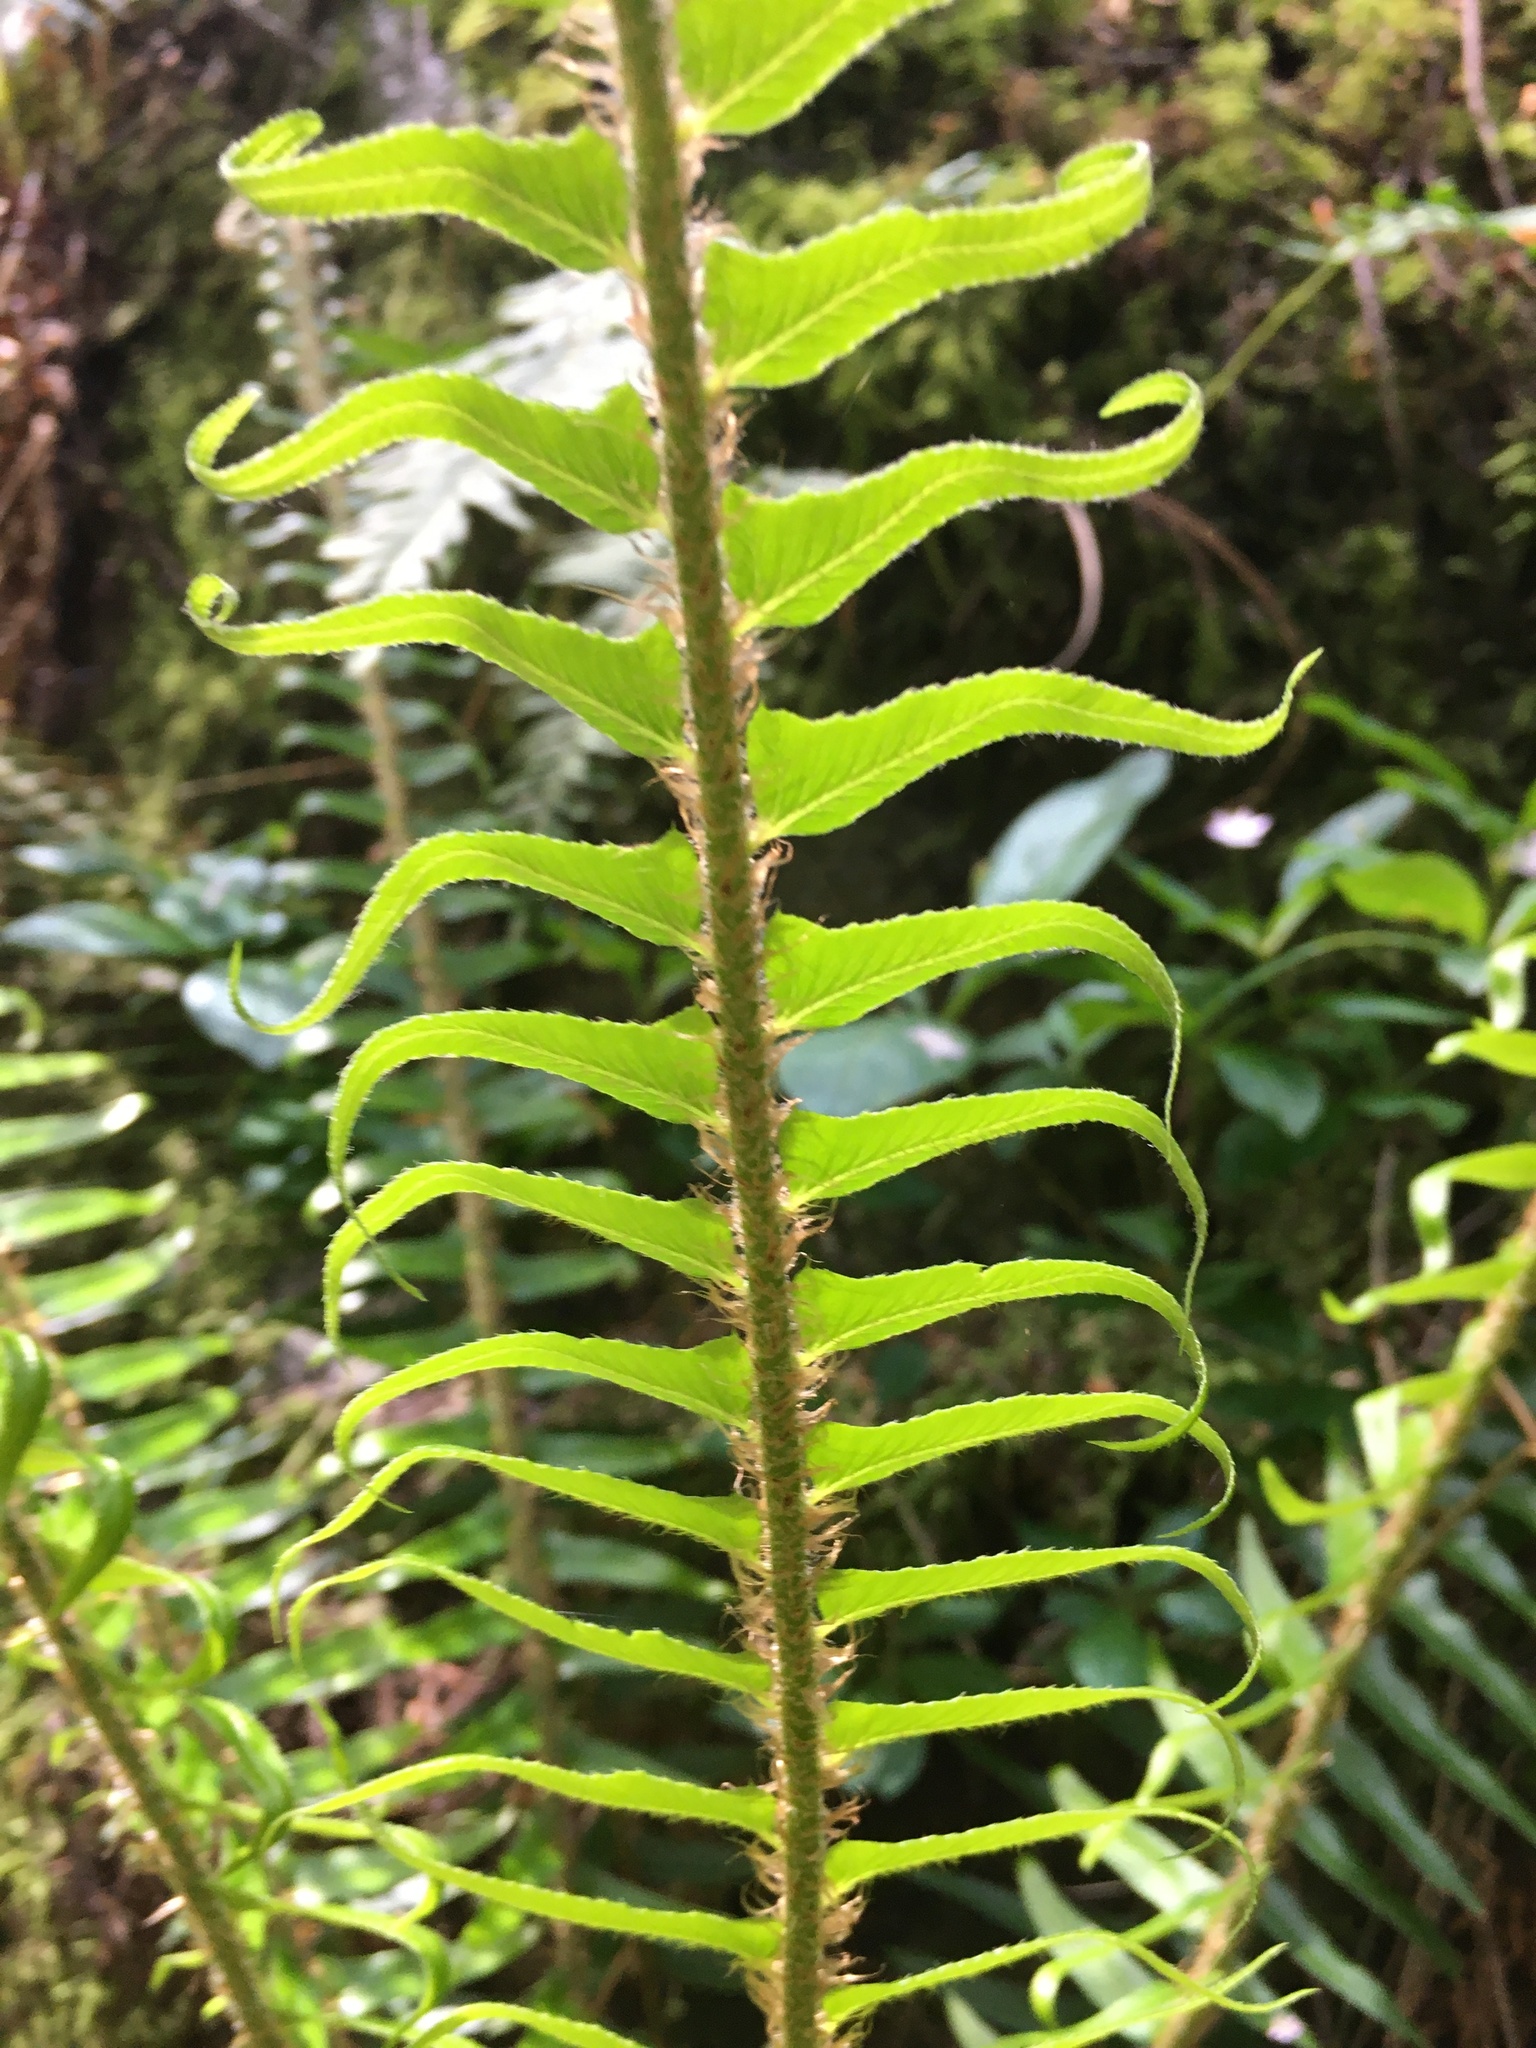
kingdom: Plantae
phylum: Tracheophyta
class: Polypodiopsida
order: Polypodiales
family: Dryopteridaceae
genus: Polystichum
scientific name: Polystichum munitum
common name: Western sword-fern
